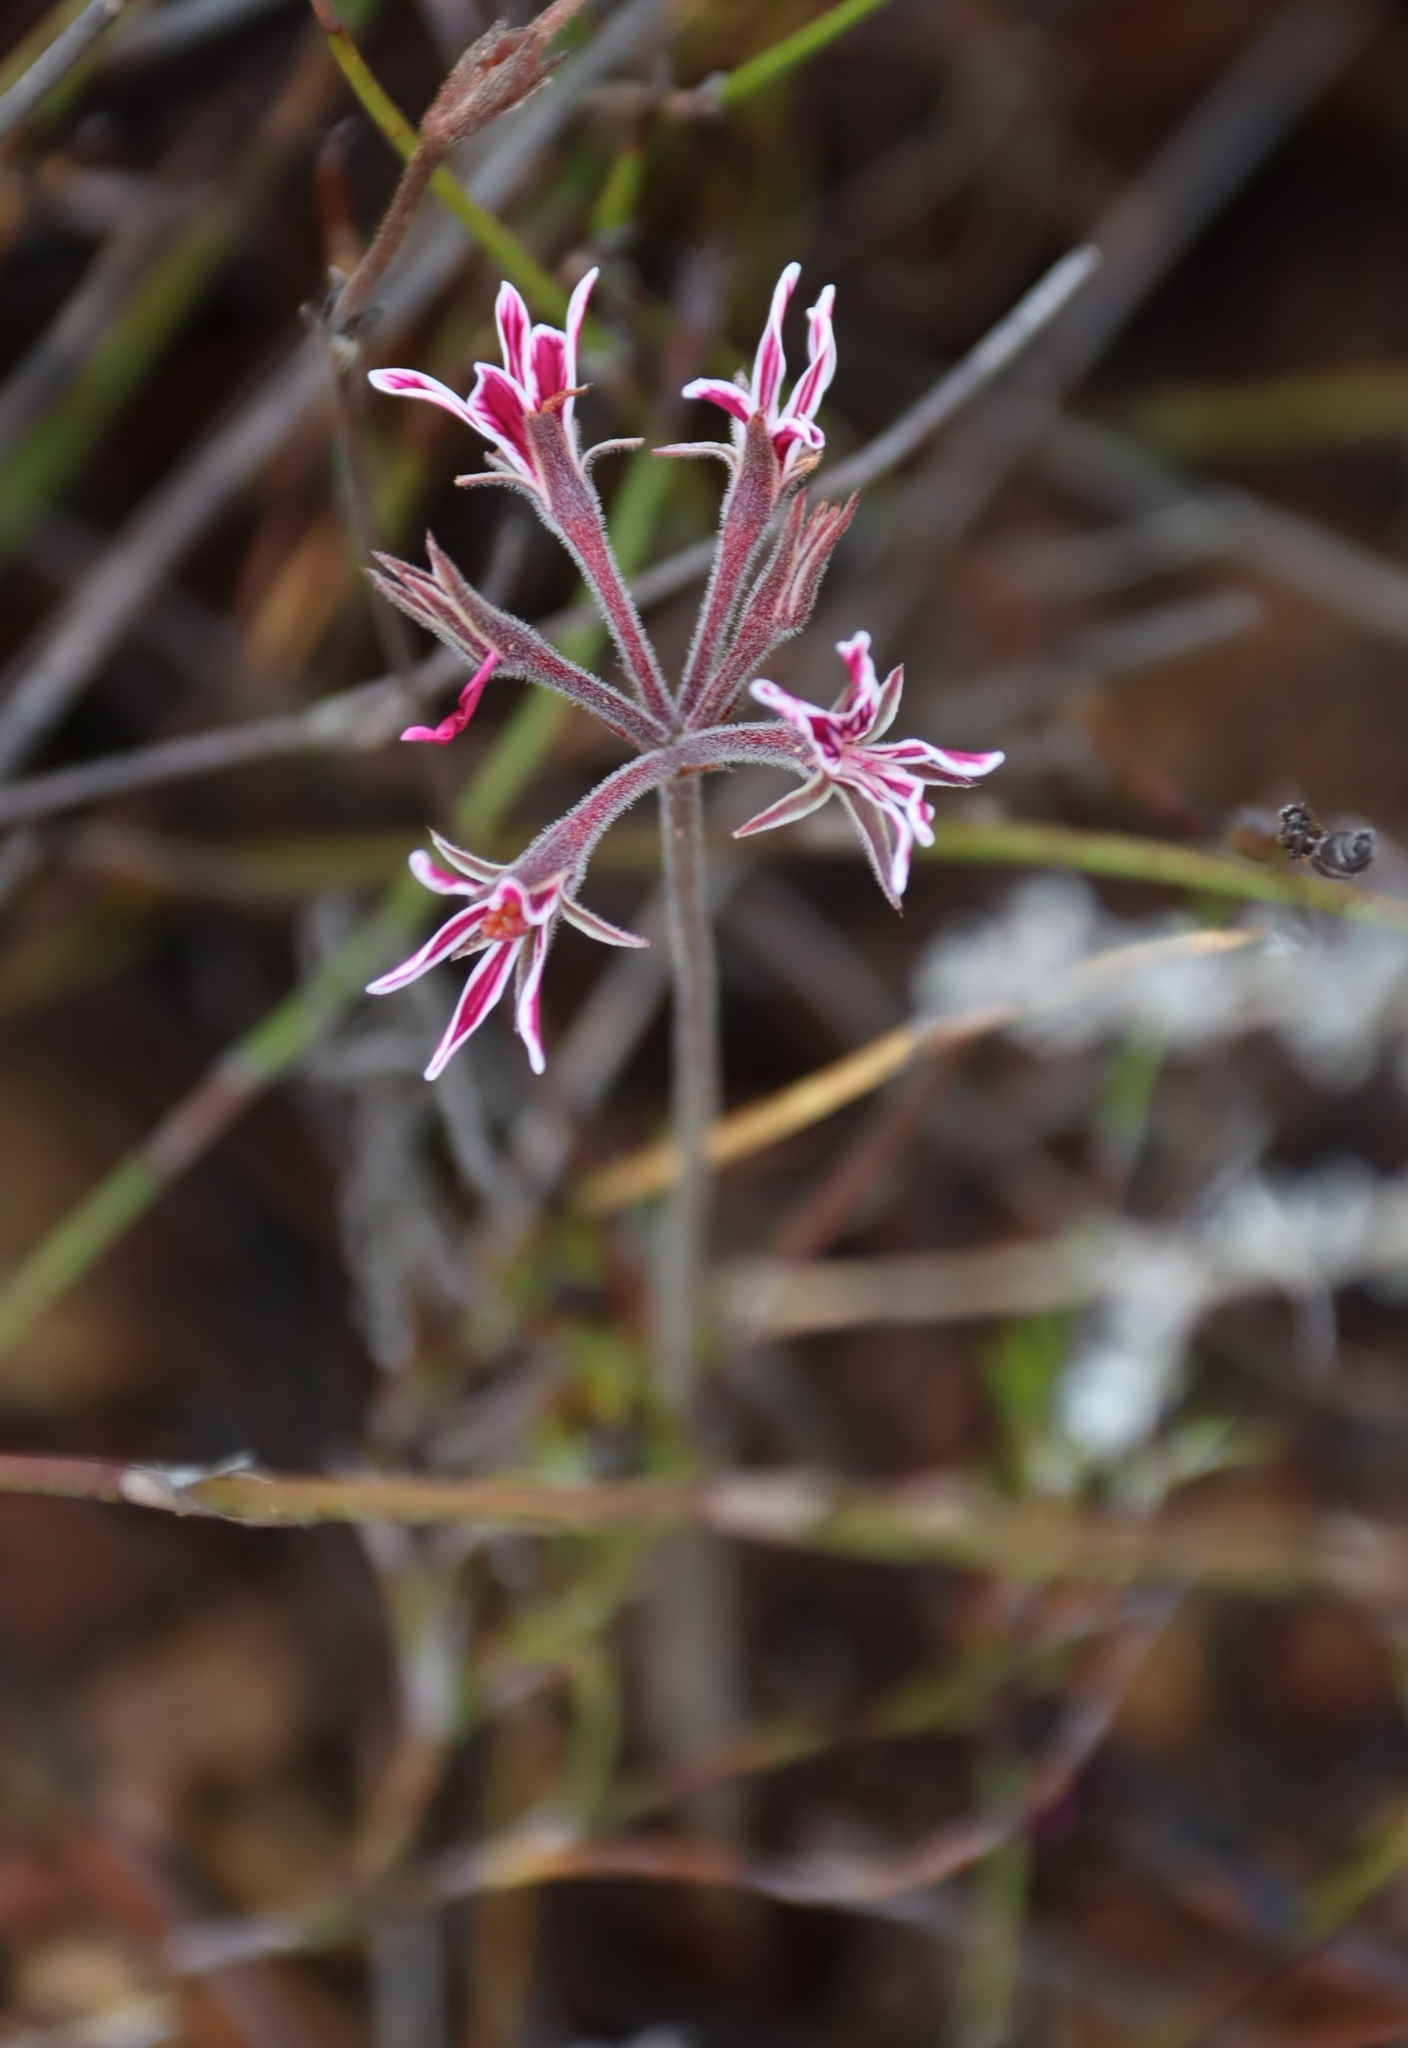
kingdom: Plantae
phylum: Tracheophyta
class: Magnoliopsida
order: Geraniales
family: Geraniaceae
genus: Pelargonium
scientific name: Pelargonium pilosellifolium
